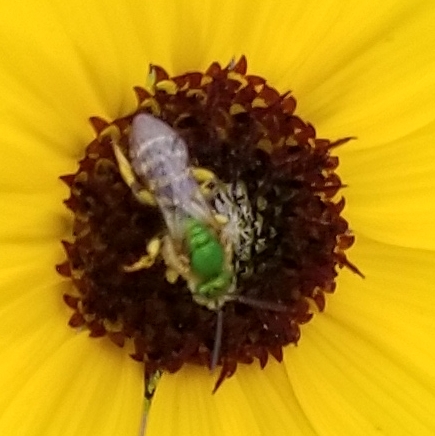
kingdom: Animalia
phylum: Arthropoda
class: Insecta
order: Hymenoptera
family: Halictidae
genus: Agapostemon
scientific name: Agapostemon
